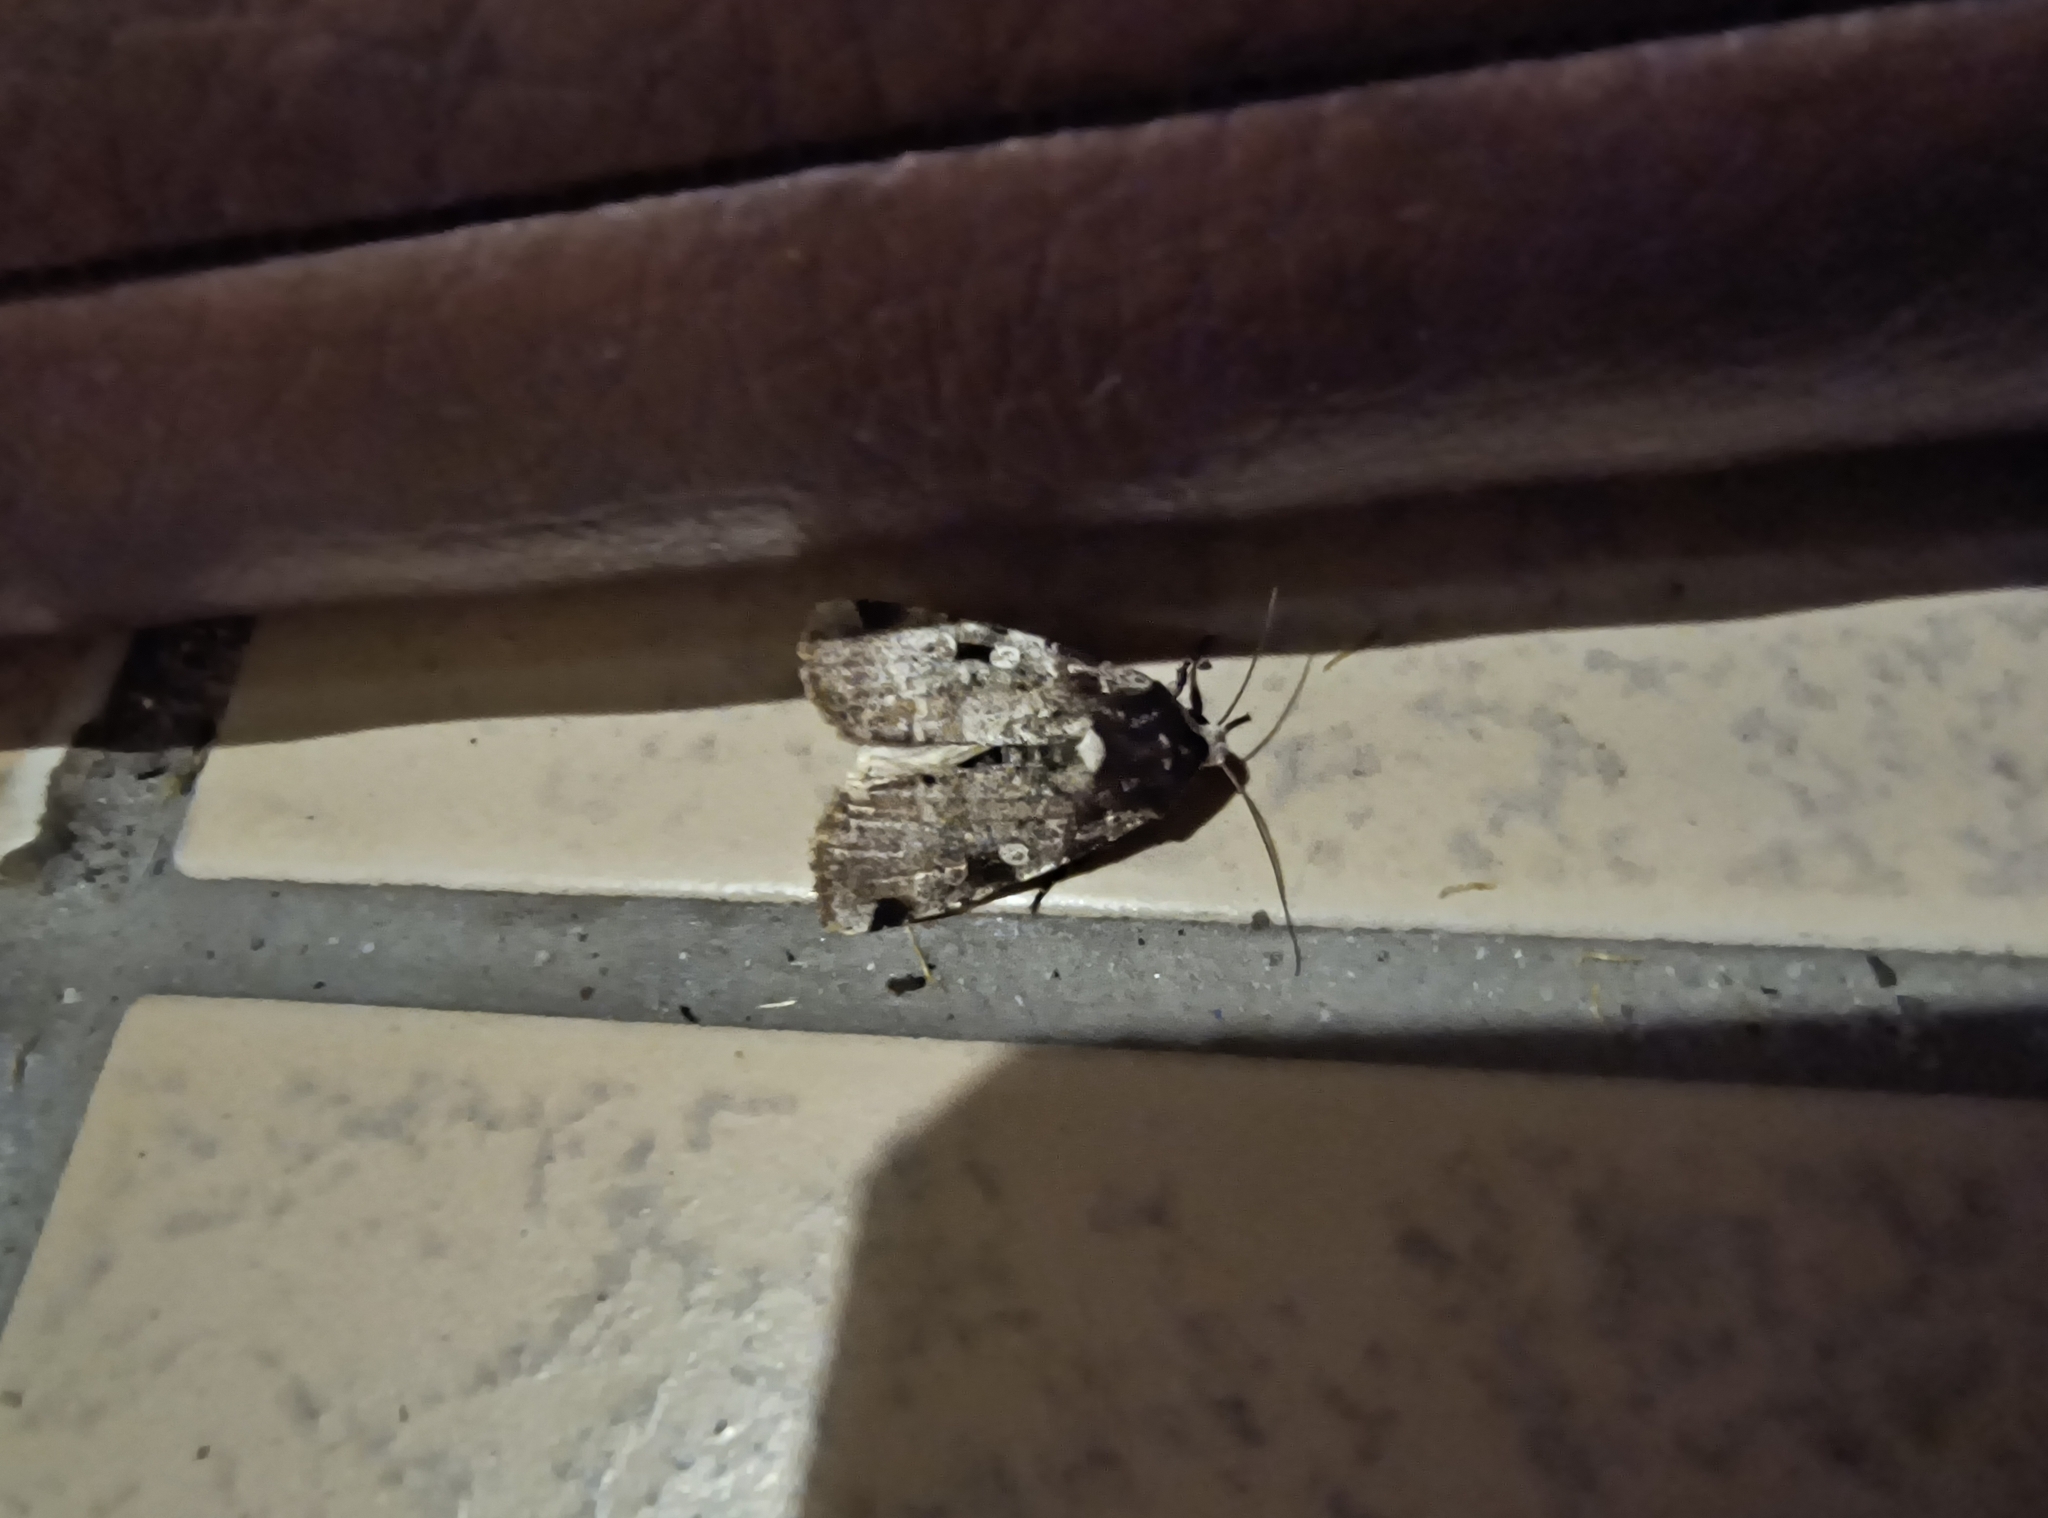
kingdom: Animalia
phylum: Arthropoda
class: Insecta
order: Lepidoptera
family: Noctuidae
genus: Mentaxya
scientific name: Mentaxya ignicollis
